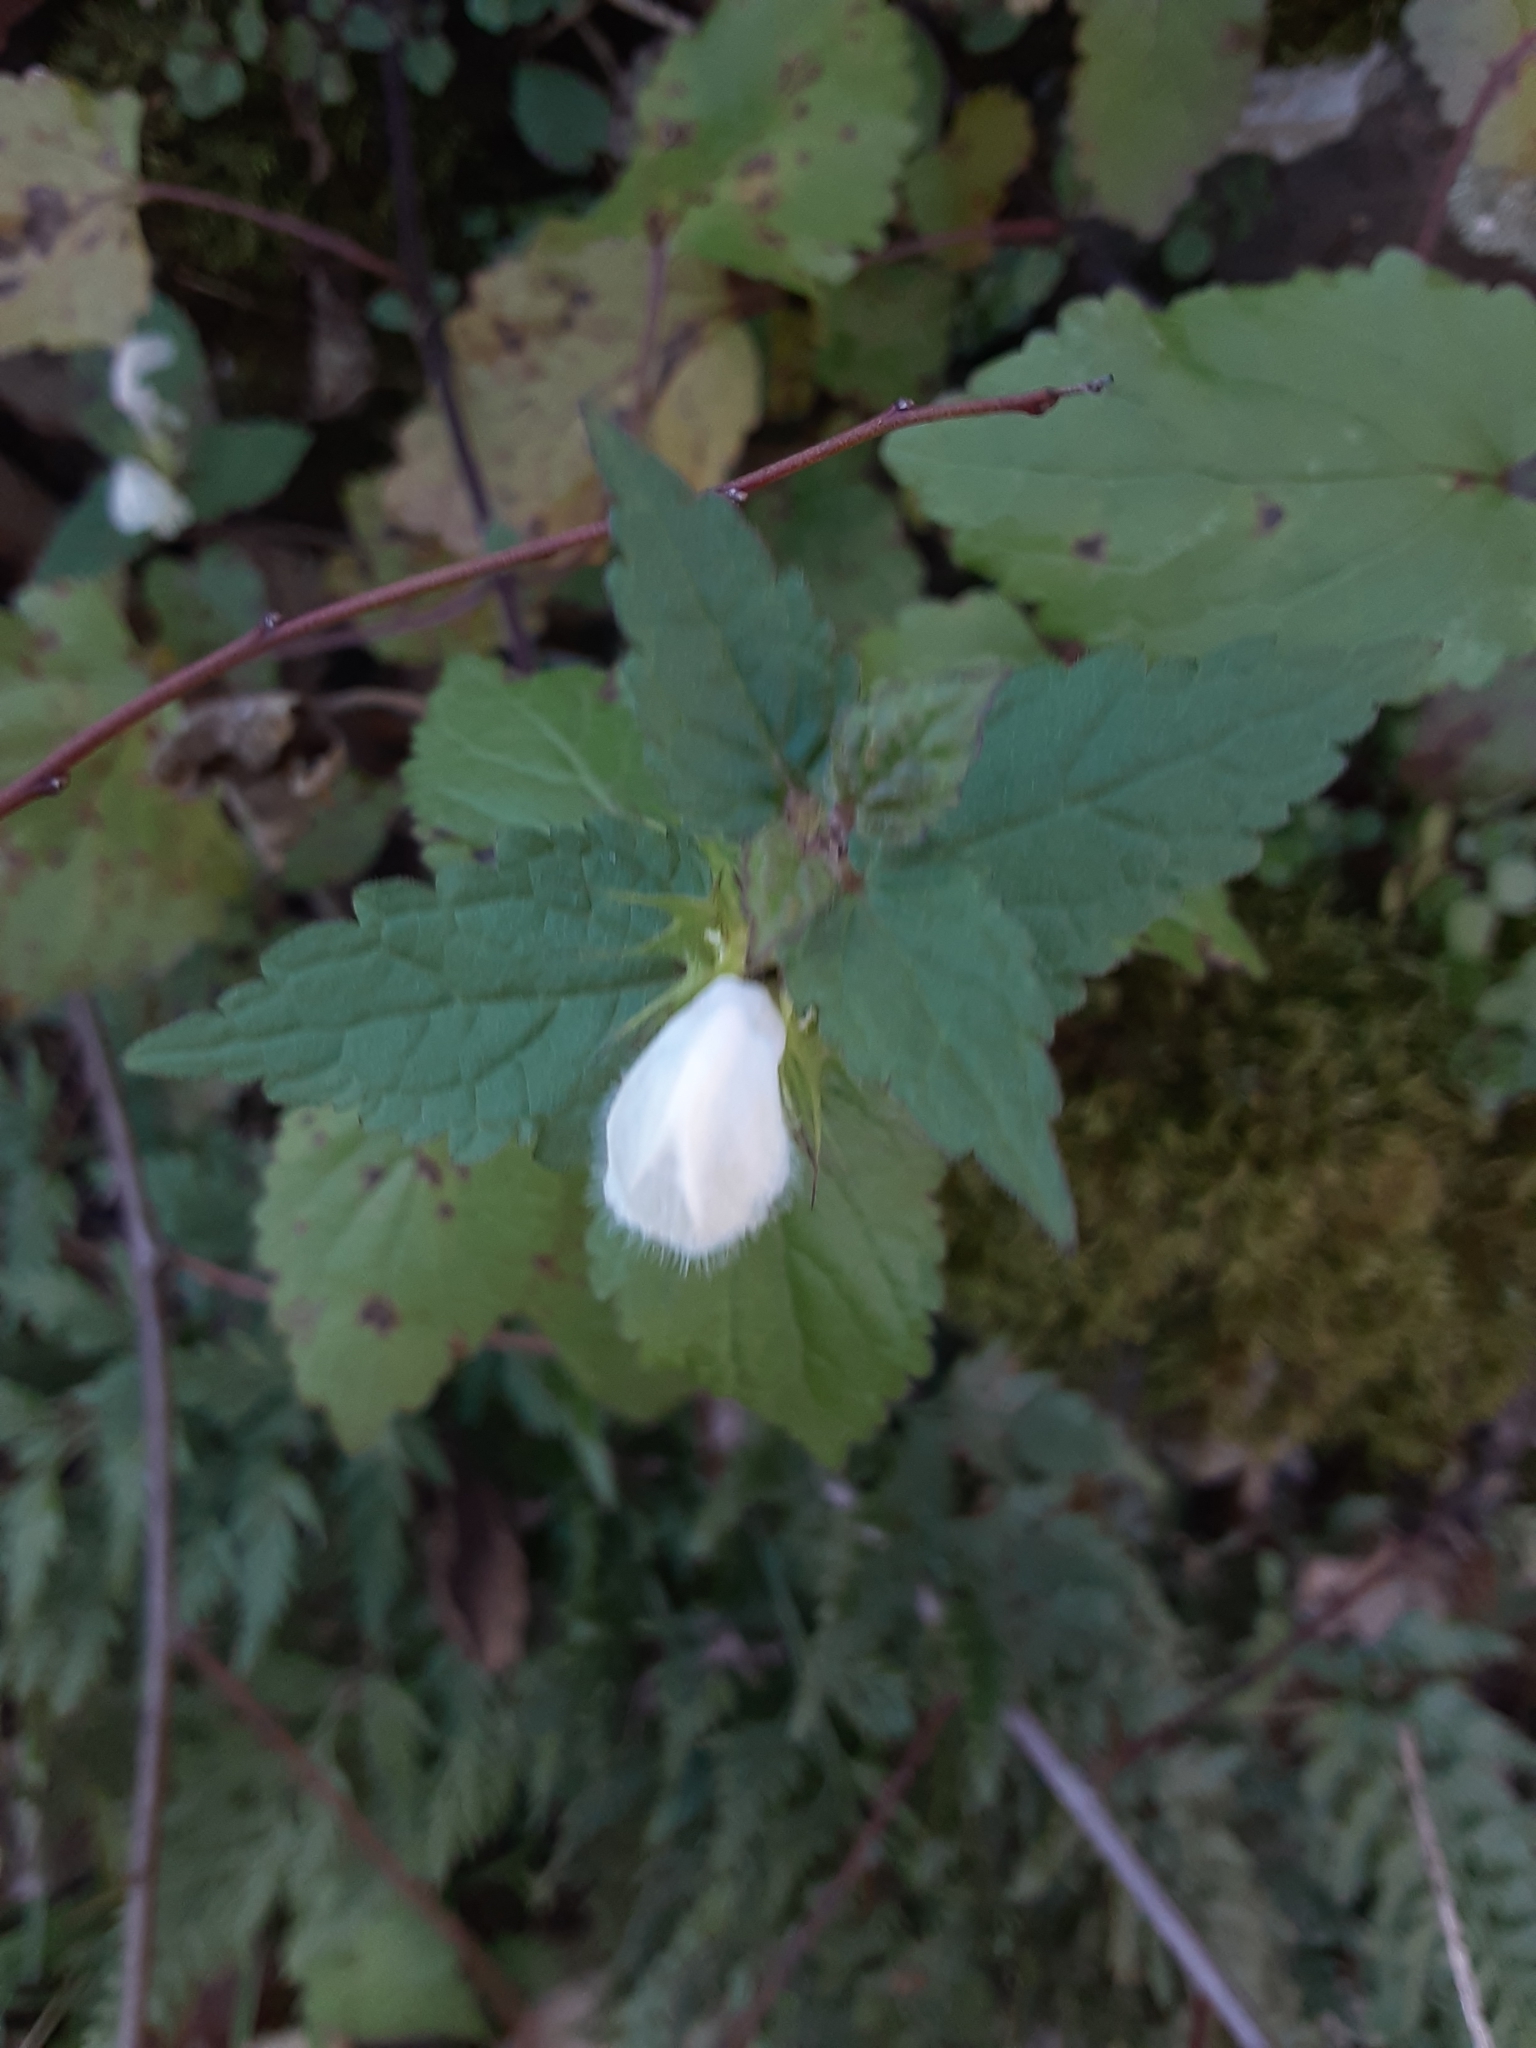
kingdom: Plantae
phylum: Tracheophyta
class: Magnoliopsida
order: Lamiales
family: Lamiaceae
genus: Lamium
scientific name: Lamium album
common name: White dead-nettle
